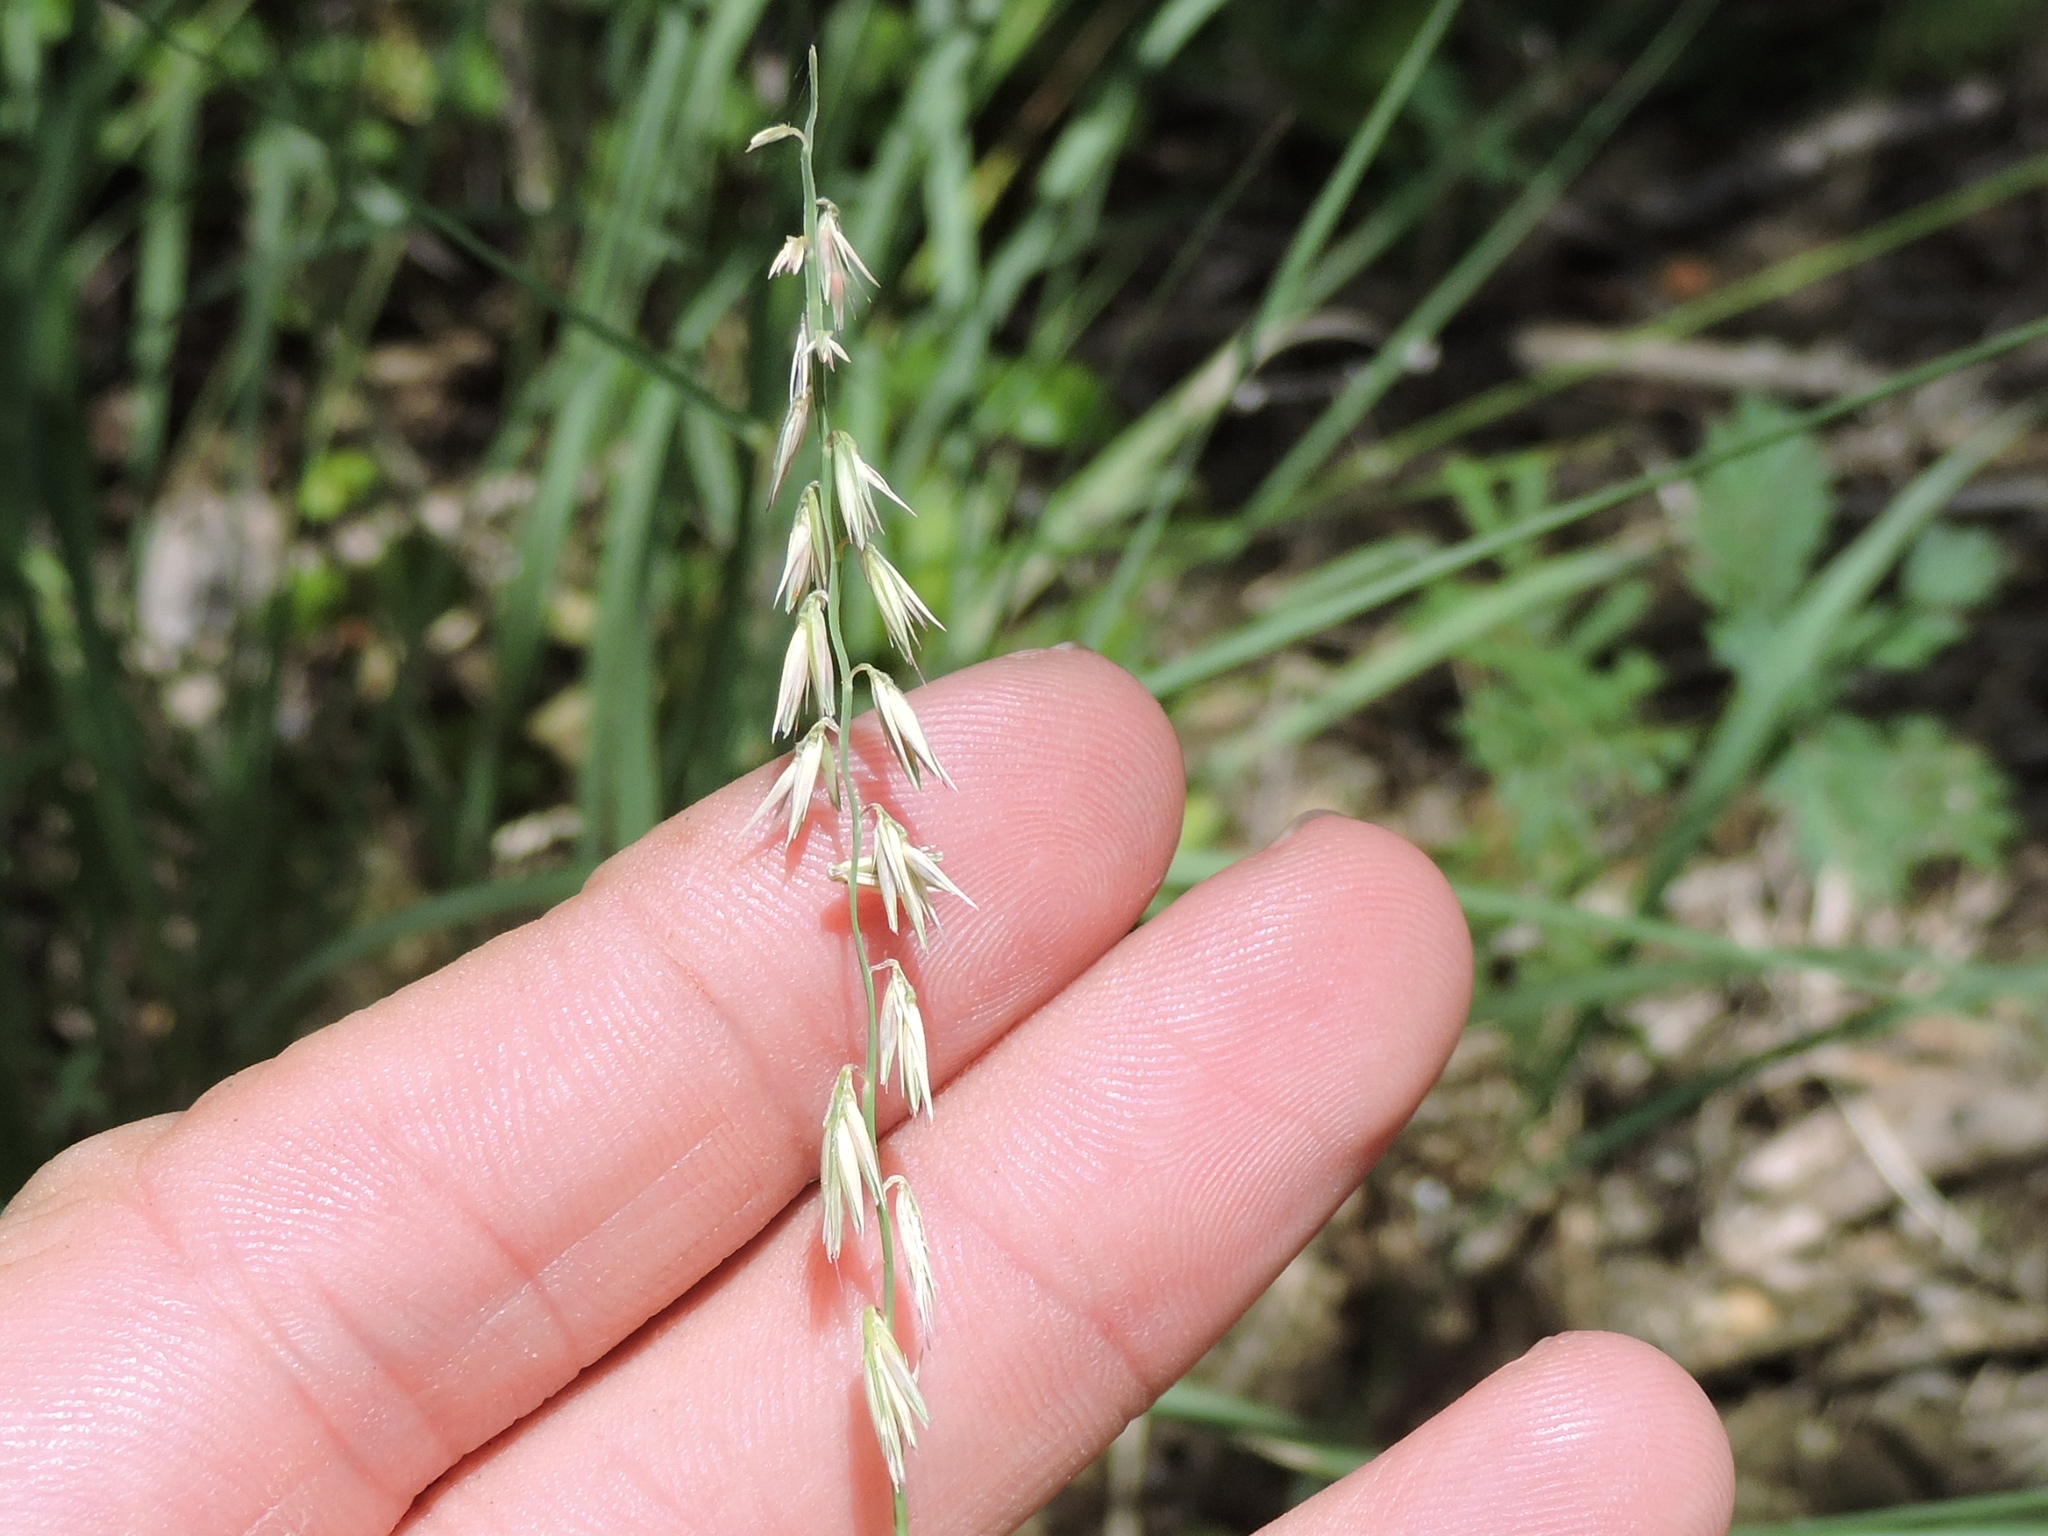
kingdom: Plantae
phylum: Tracheophyta
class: Liliopsida
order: Poales
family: Poaceae
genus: Bouteloua
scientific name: Bouteloua curtipendula
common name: Side-oats grama
